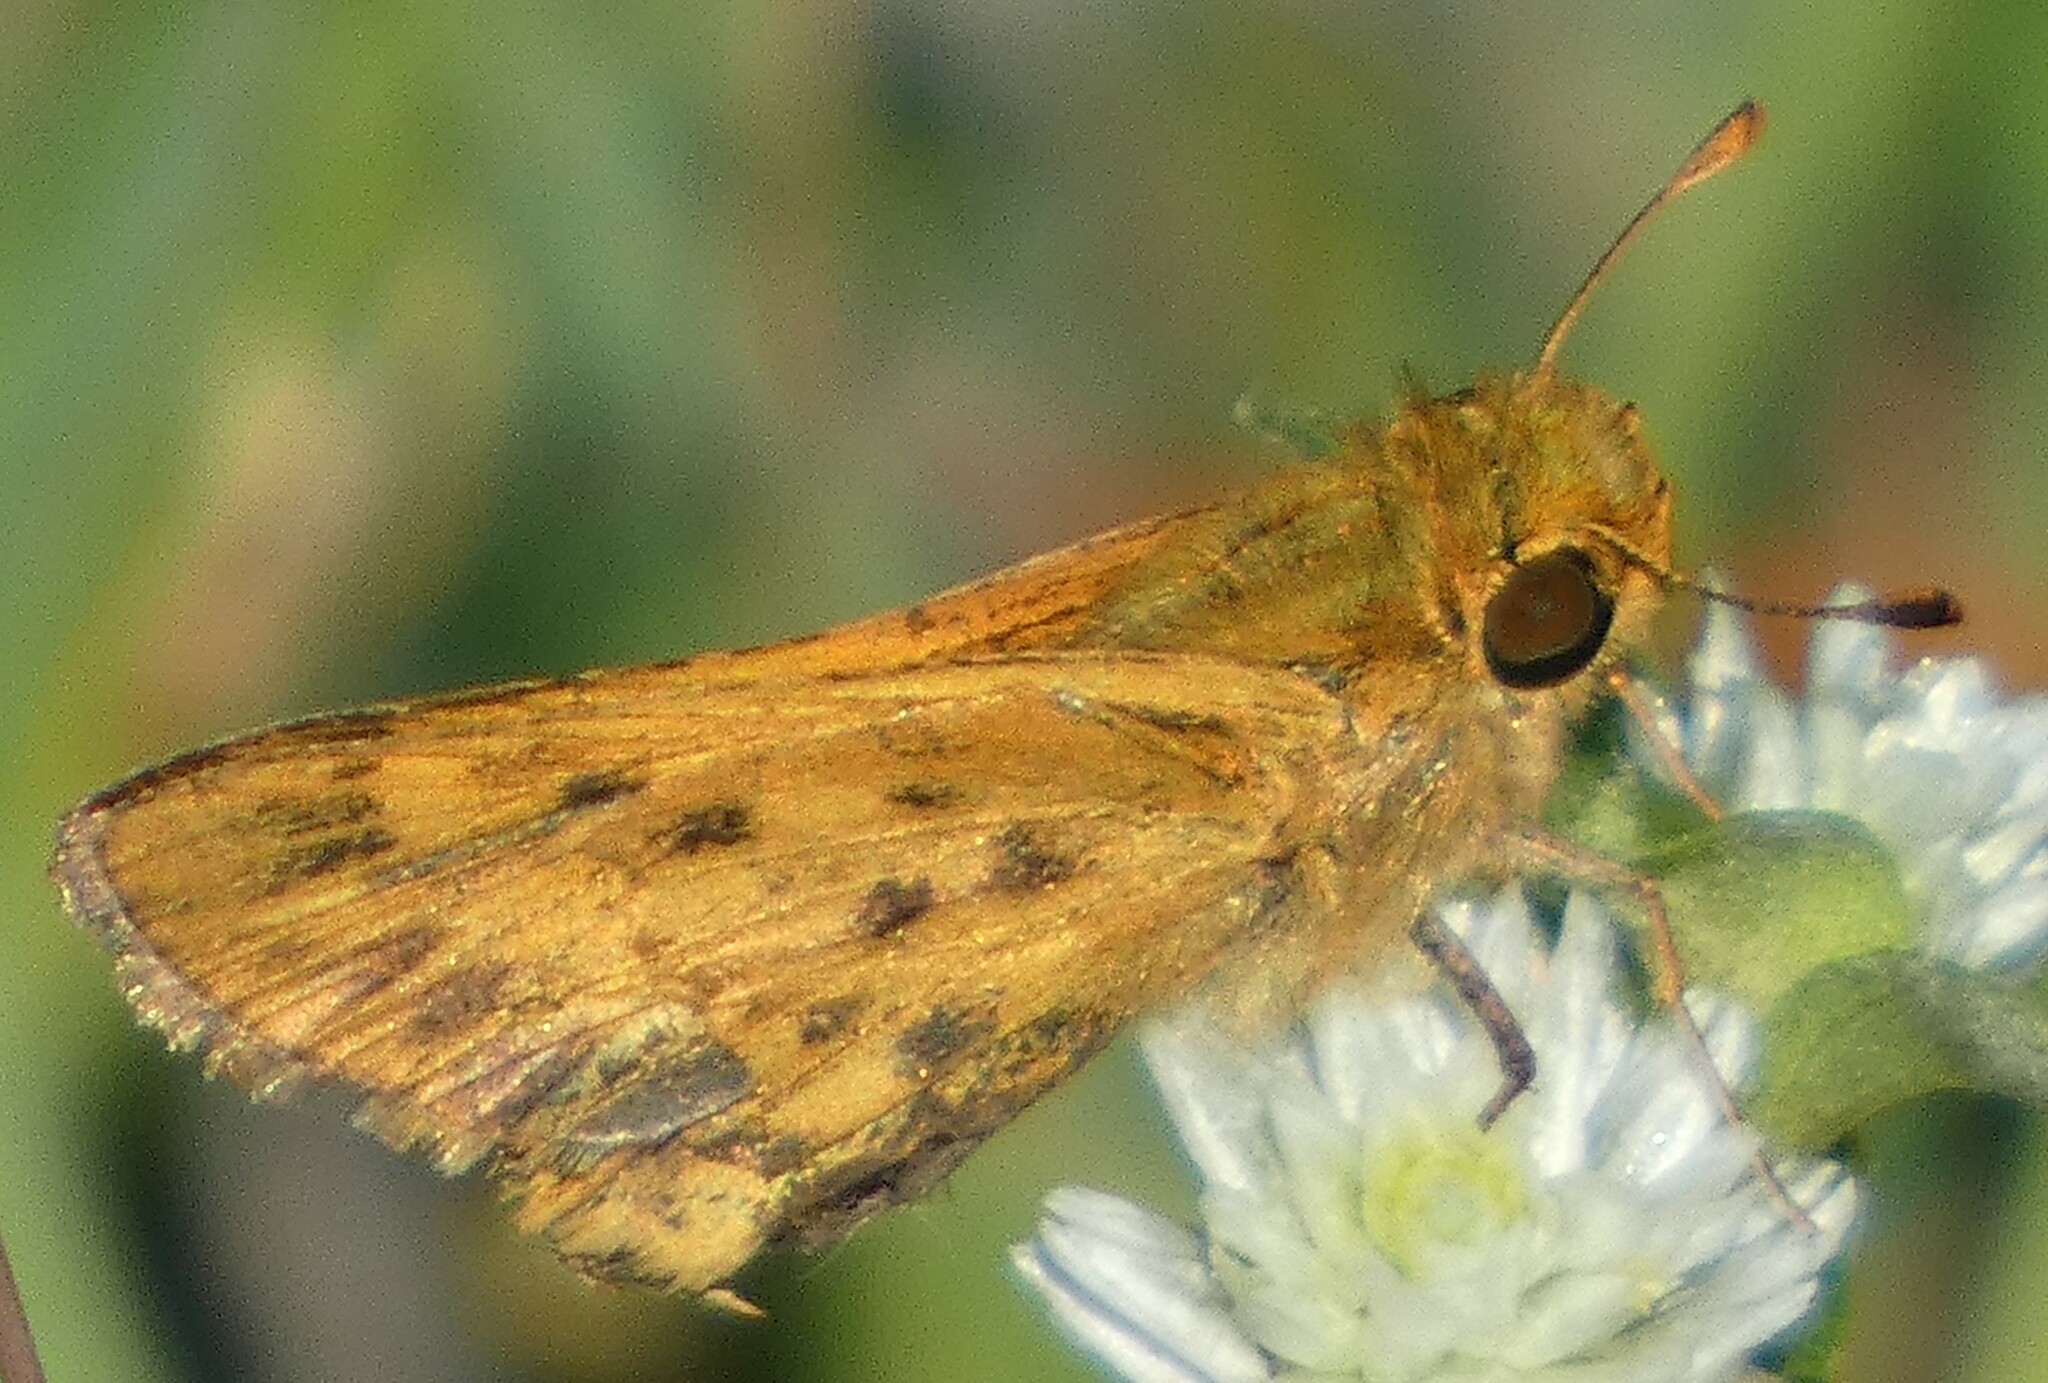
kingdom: Animalia
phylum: Arthropoda
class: Insecta
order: Lepidoptera
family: Hesperiidae
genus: Hylephila
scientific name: Hylephila phyleus
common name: Fiery skipper
